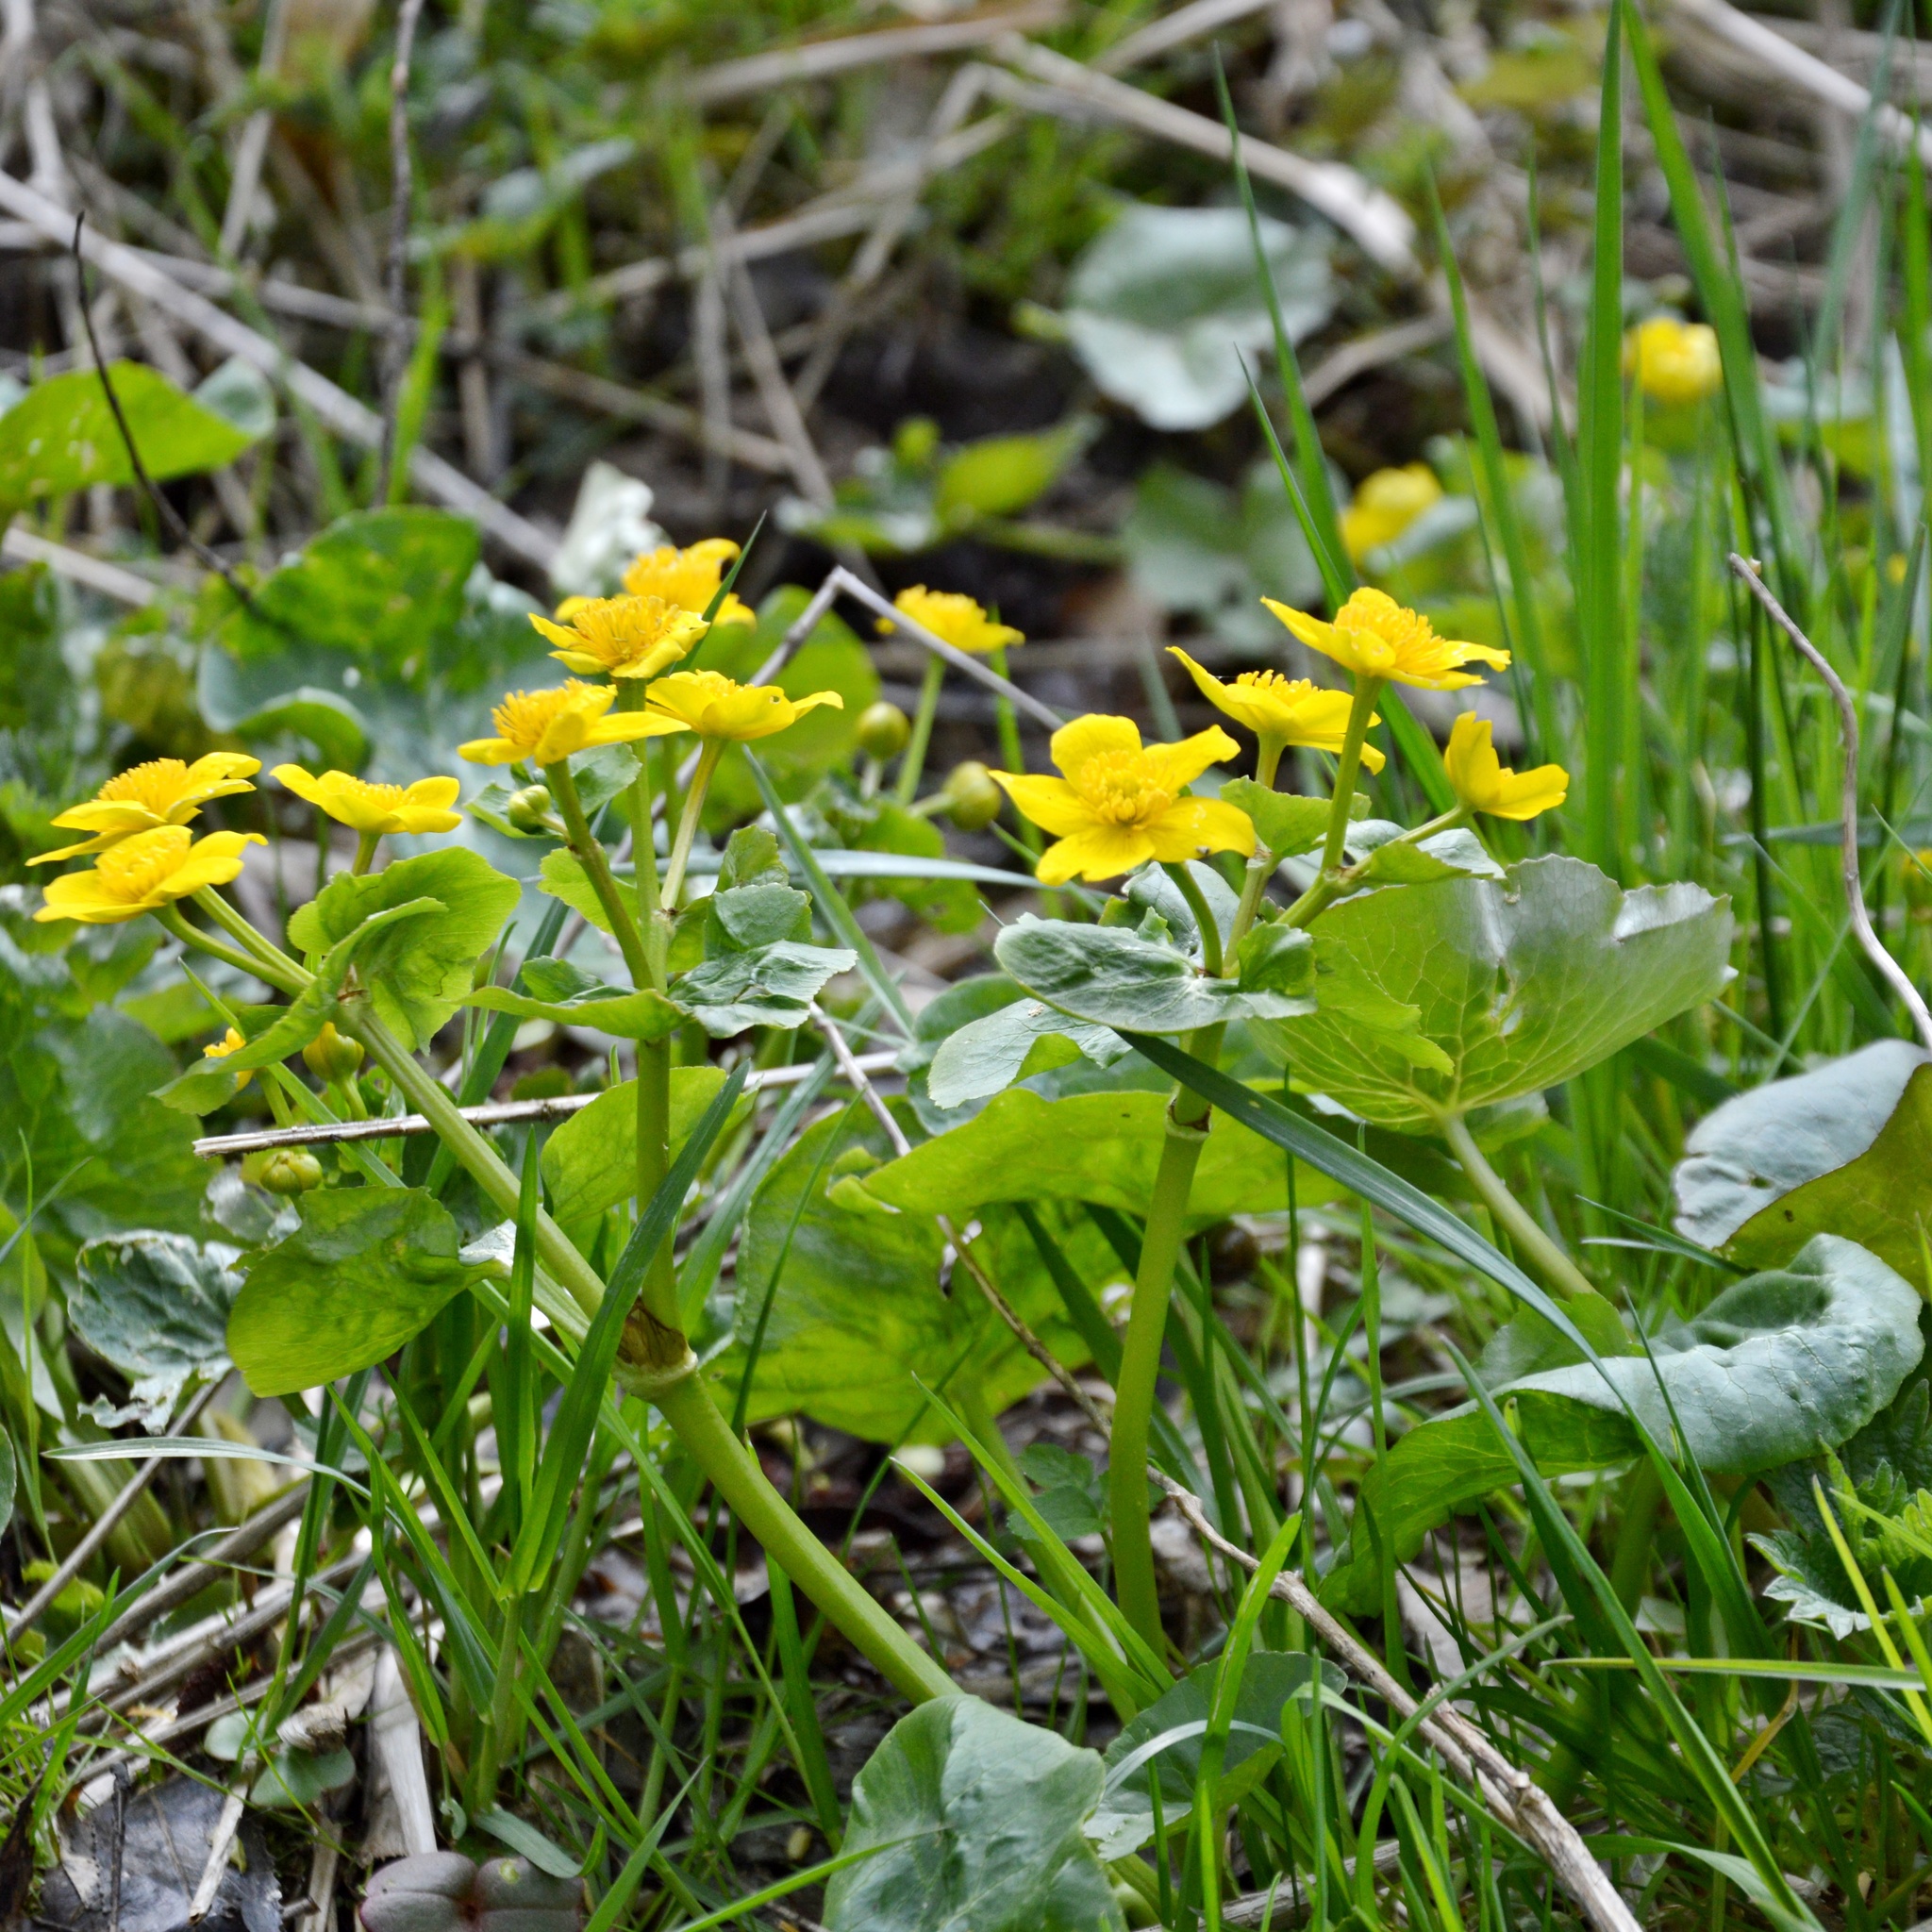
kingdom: Plantae
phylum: Tracheophyta
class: Magnoliopsida
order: Ranunculales
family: Ranunculaceae
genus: Caltha
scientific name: Caltha palustris
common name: Marsh marigold
